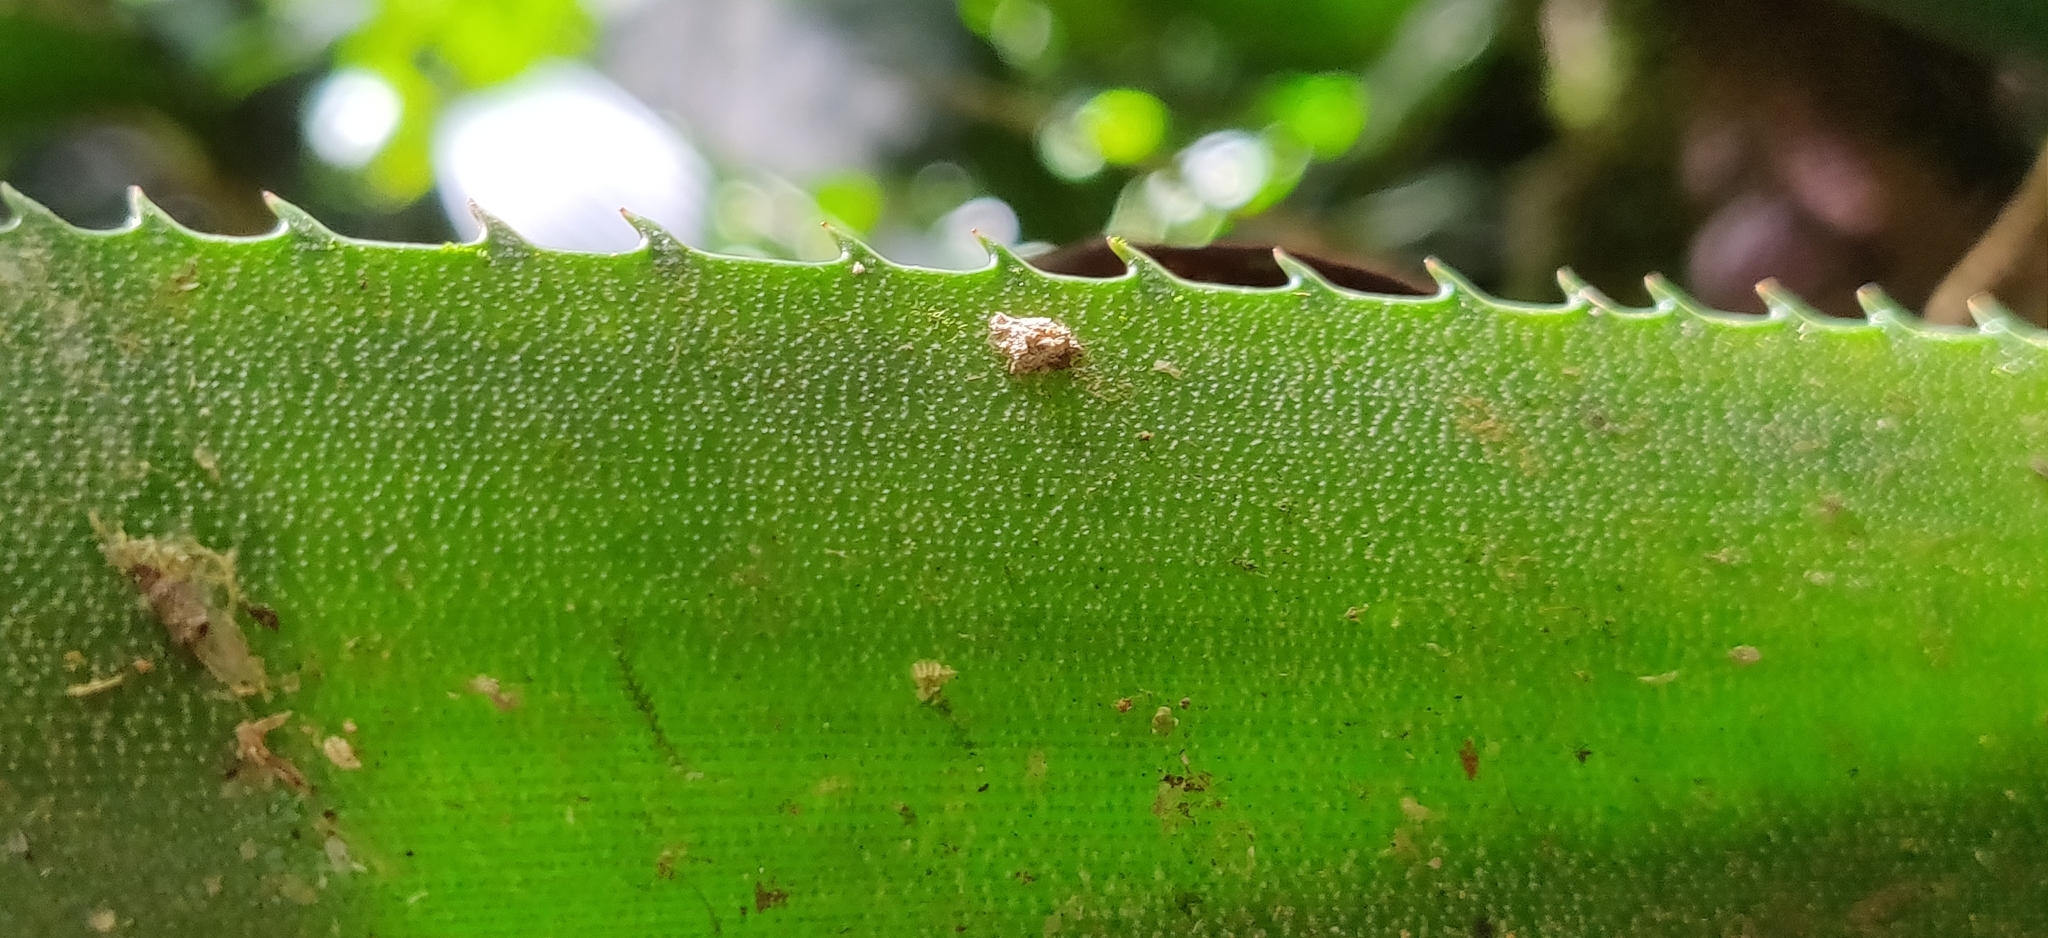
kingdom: Plantae
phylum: Tracheophyta
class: Liliopsida
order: Poales
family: Bromeliaceae
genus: Hohenbergiopsis
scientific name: Hohenbergiopsis guatemalensis
